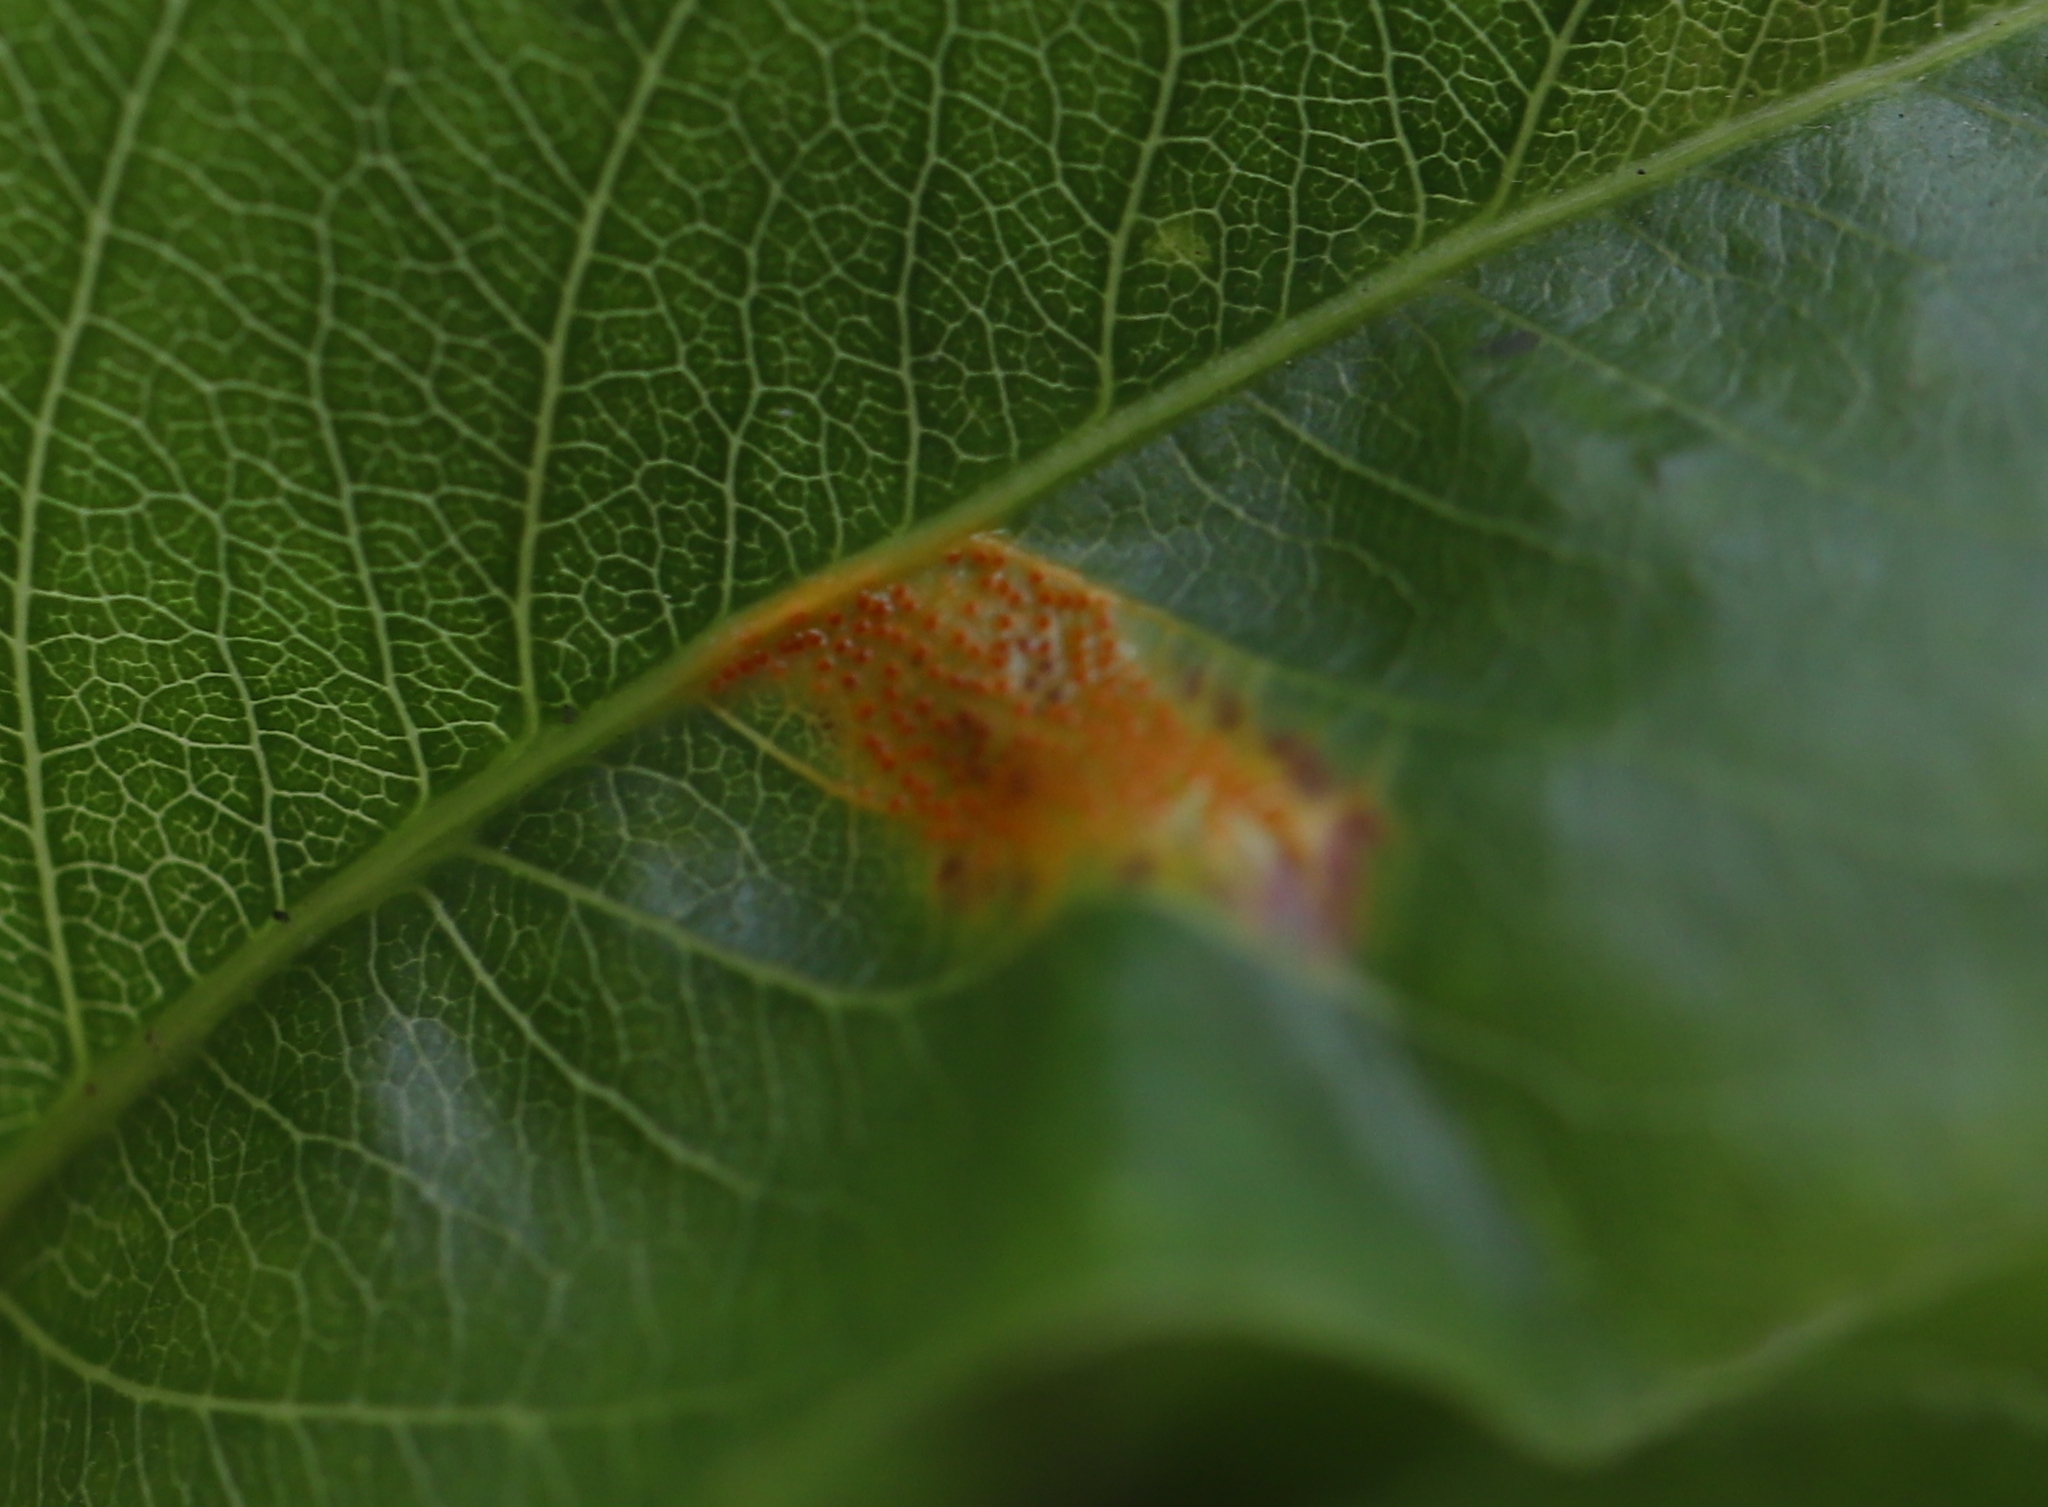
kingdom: Fungi
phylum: Basidiomycota
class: Pucciniomycetes
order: Pucciniales
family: Gymnosporangiaceae
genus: Gymnosporangium
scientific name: Gymnosporangium sabinae
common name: Pear trellis rust fungus
